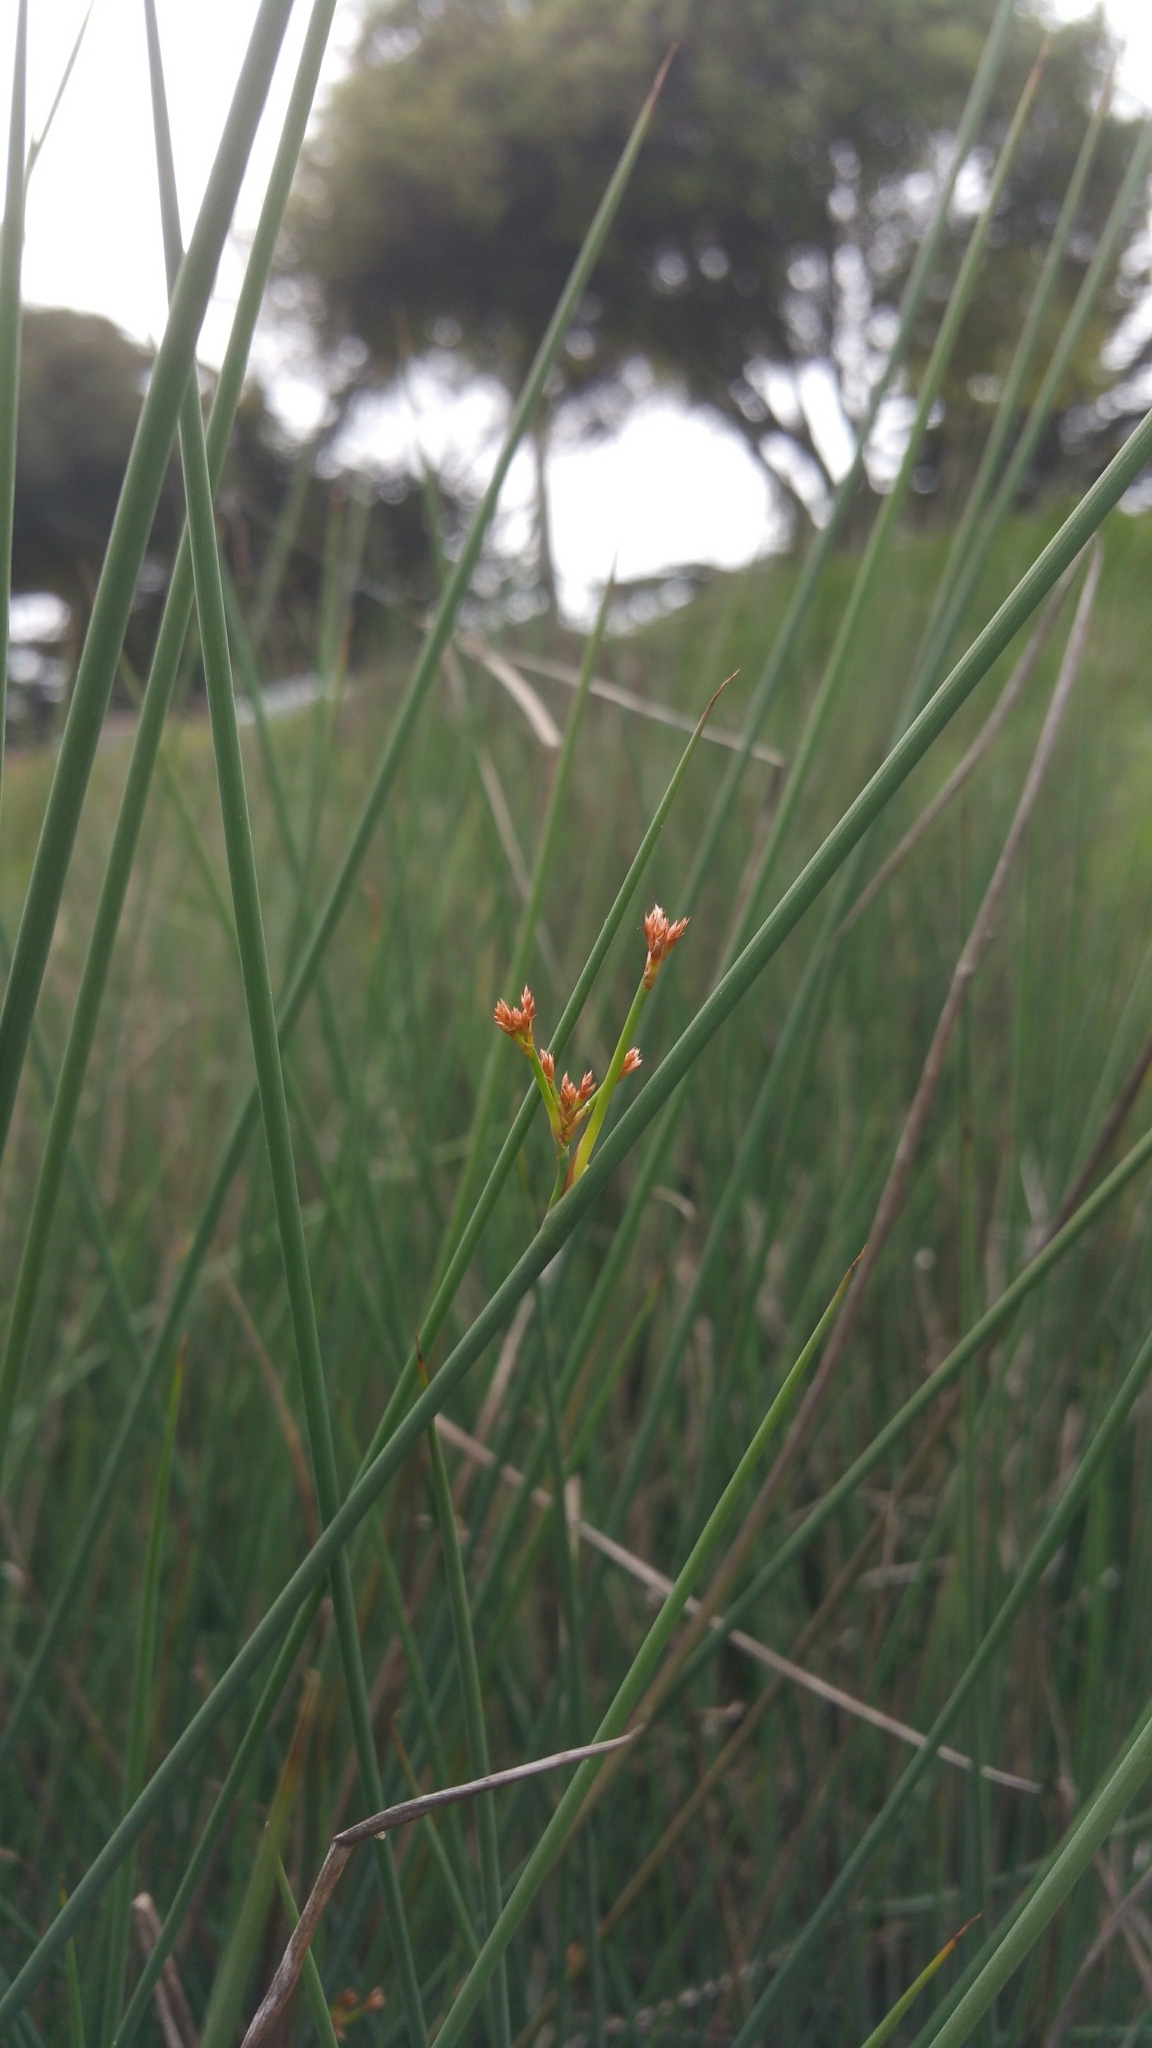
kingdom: Plantae
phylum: Tracheophyta
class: Liliopsida
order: Poales
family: Juncaceae
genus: Juncus
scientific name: Juncus patens
